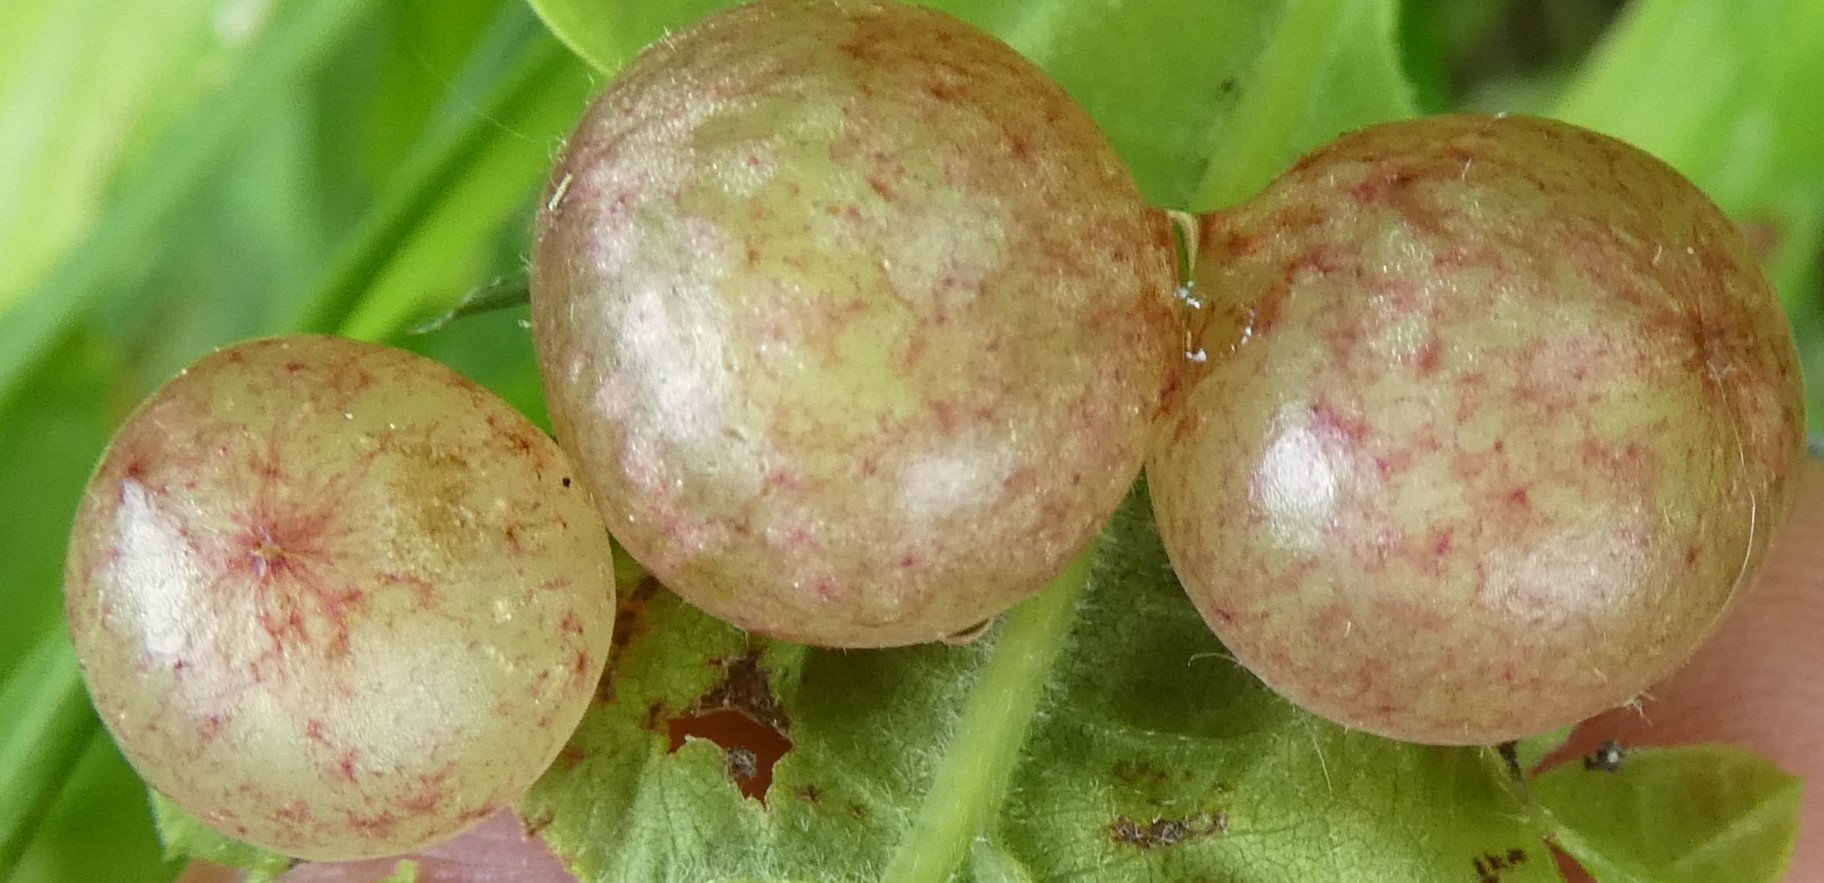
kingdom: Animalia
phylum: Arthropoda
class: Insecta
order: Hymenoptera
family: Cynipidae
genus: Neuroterus
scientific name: Neuroterus quercusbaccarum
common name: Common spangle gall
